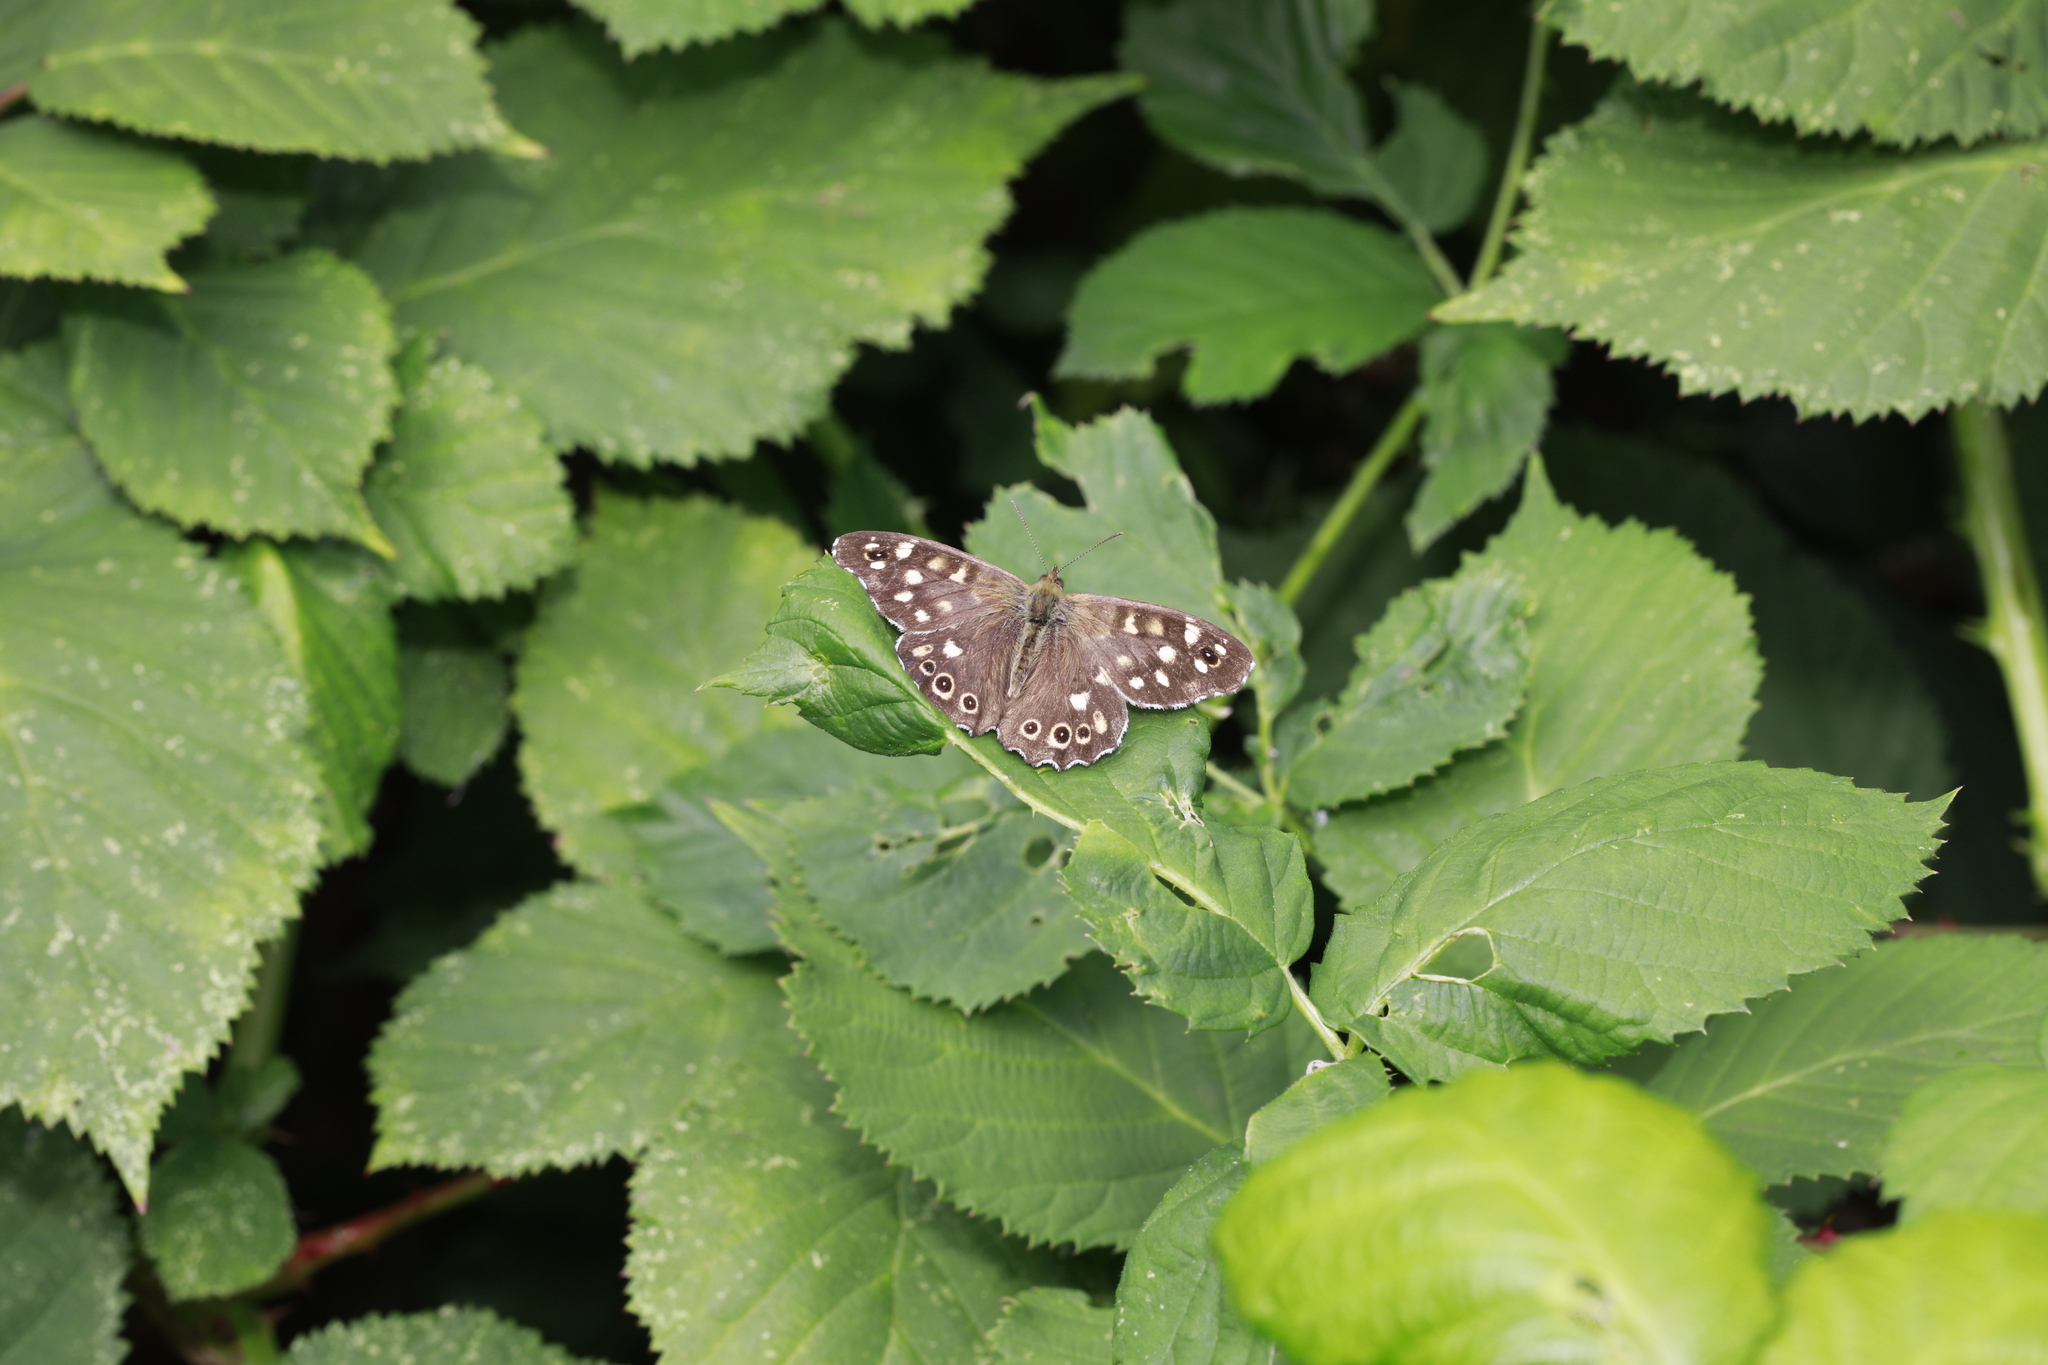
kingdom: Animalia
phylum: Arthropoda
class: Insecta
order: Lepidoptera
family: Nymphalidae
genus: Pararge
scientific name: Pararge aegeria
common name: Speckled wood
